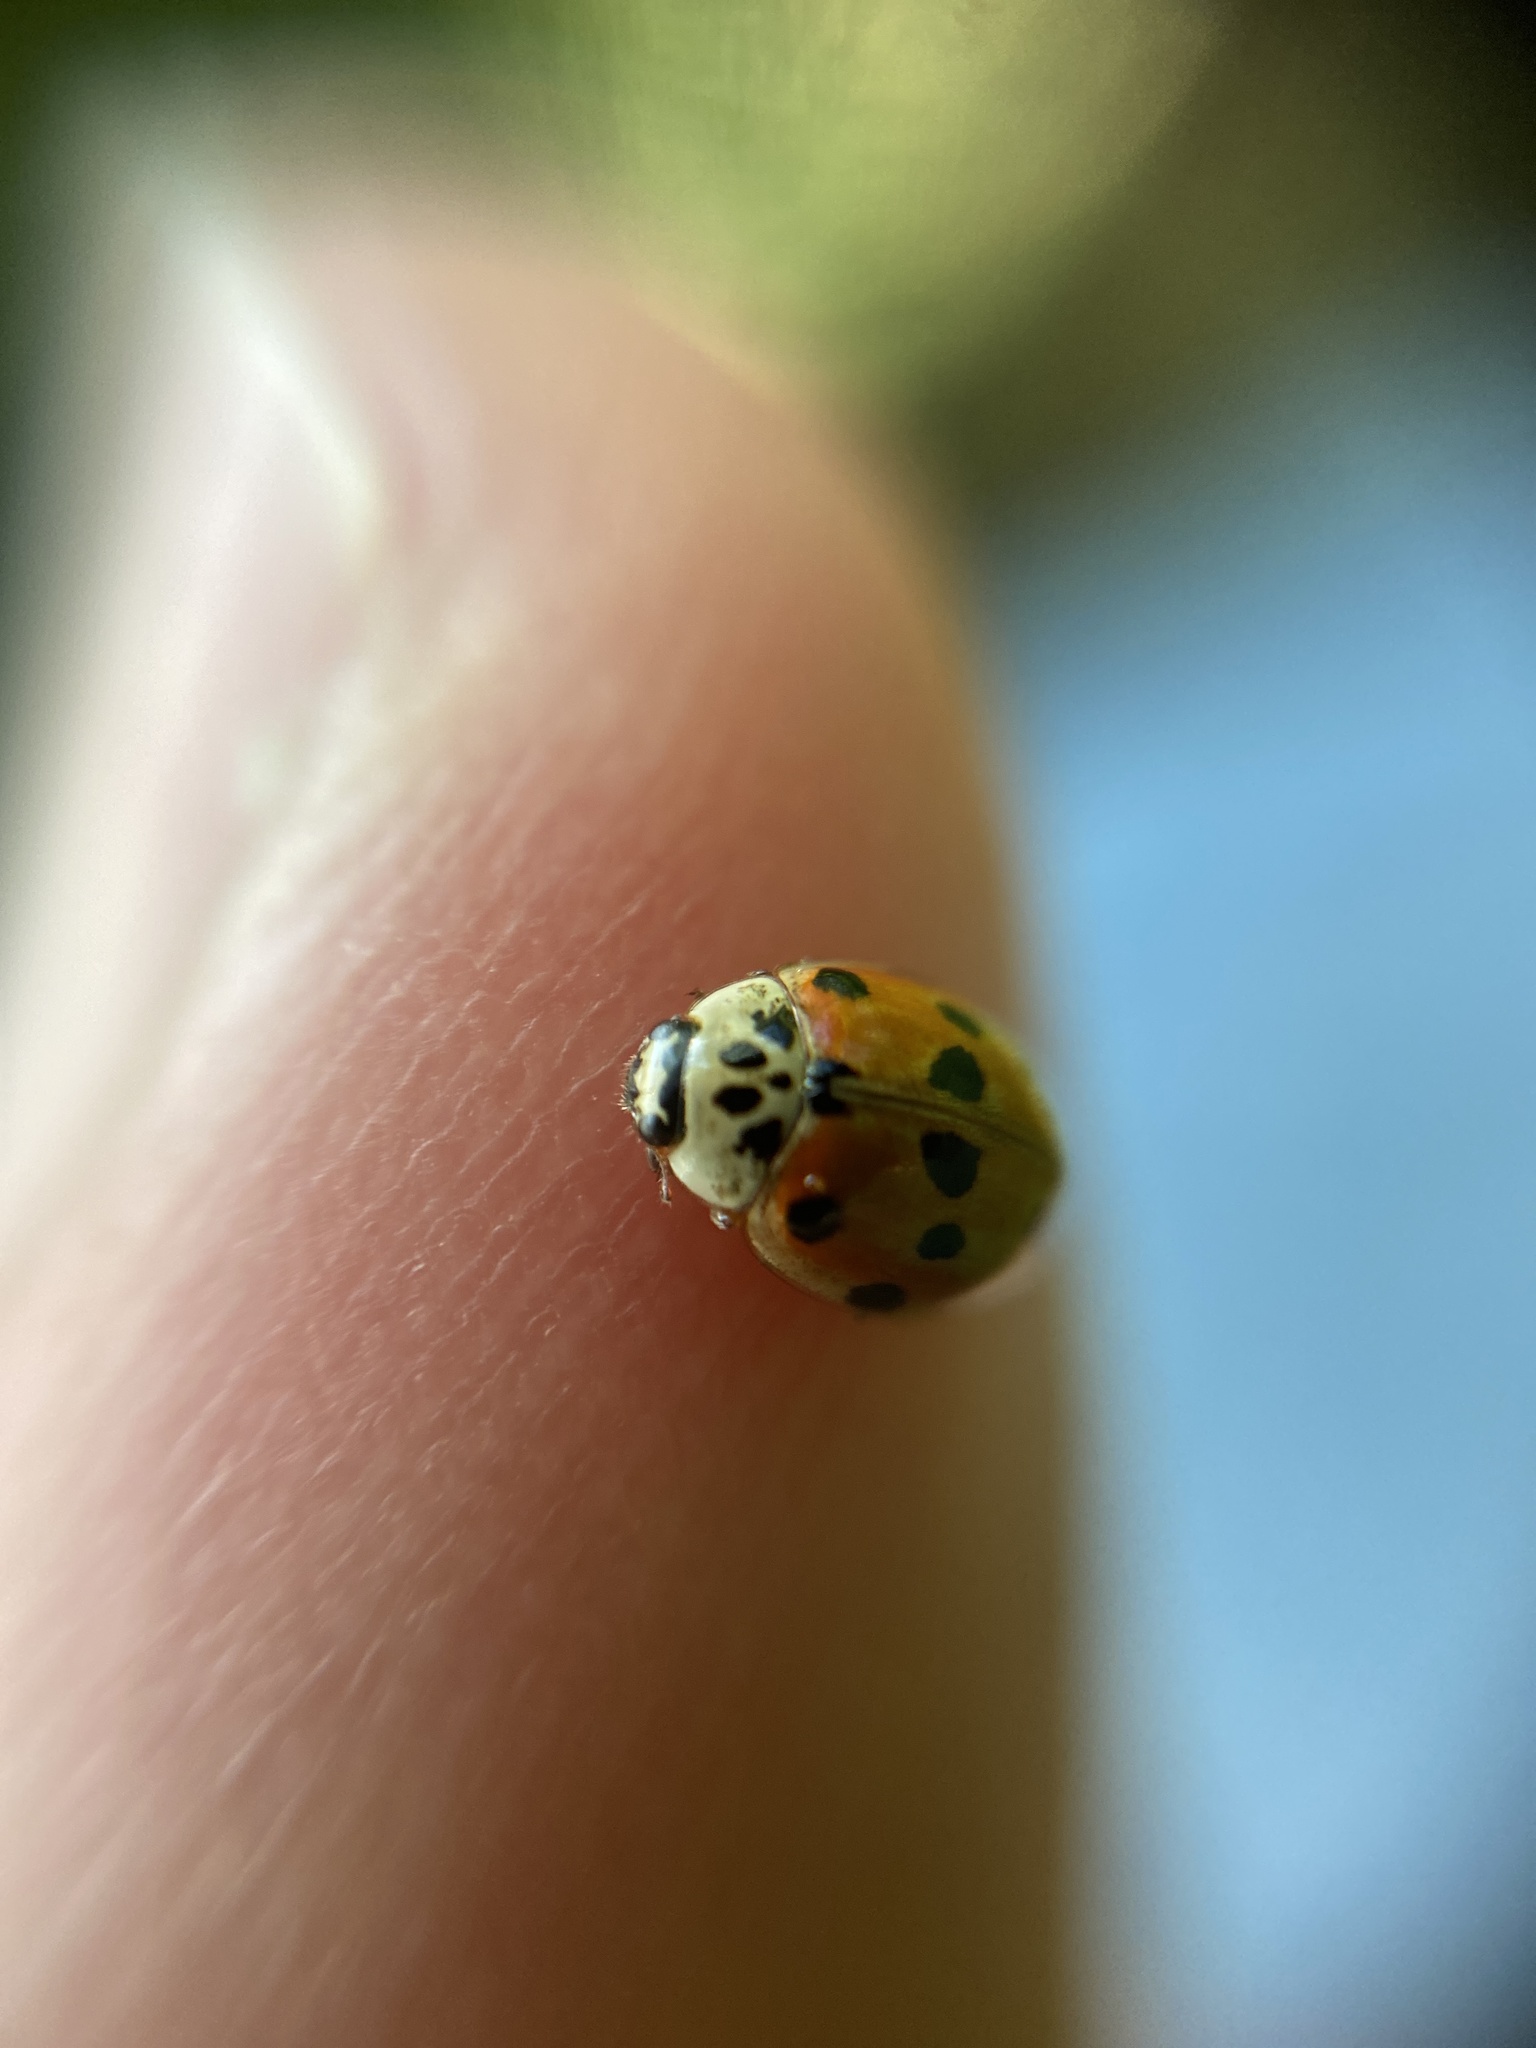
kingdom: Animalia
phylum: Arthropoda
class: Insecta
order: Coleoptera
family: Coccinellidae
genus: Adalia
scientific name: Adalia decempunctata
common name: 10-spot ladybird
